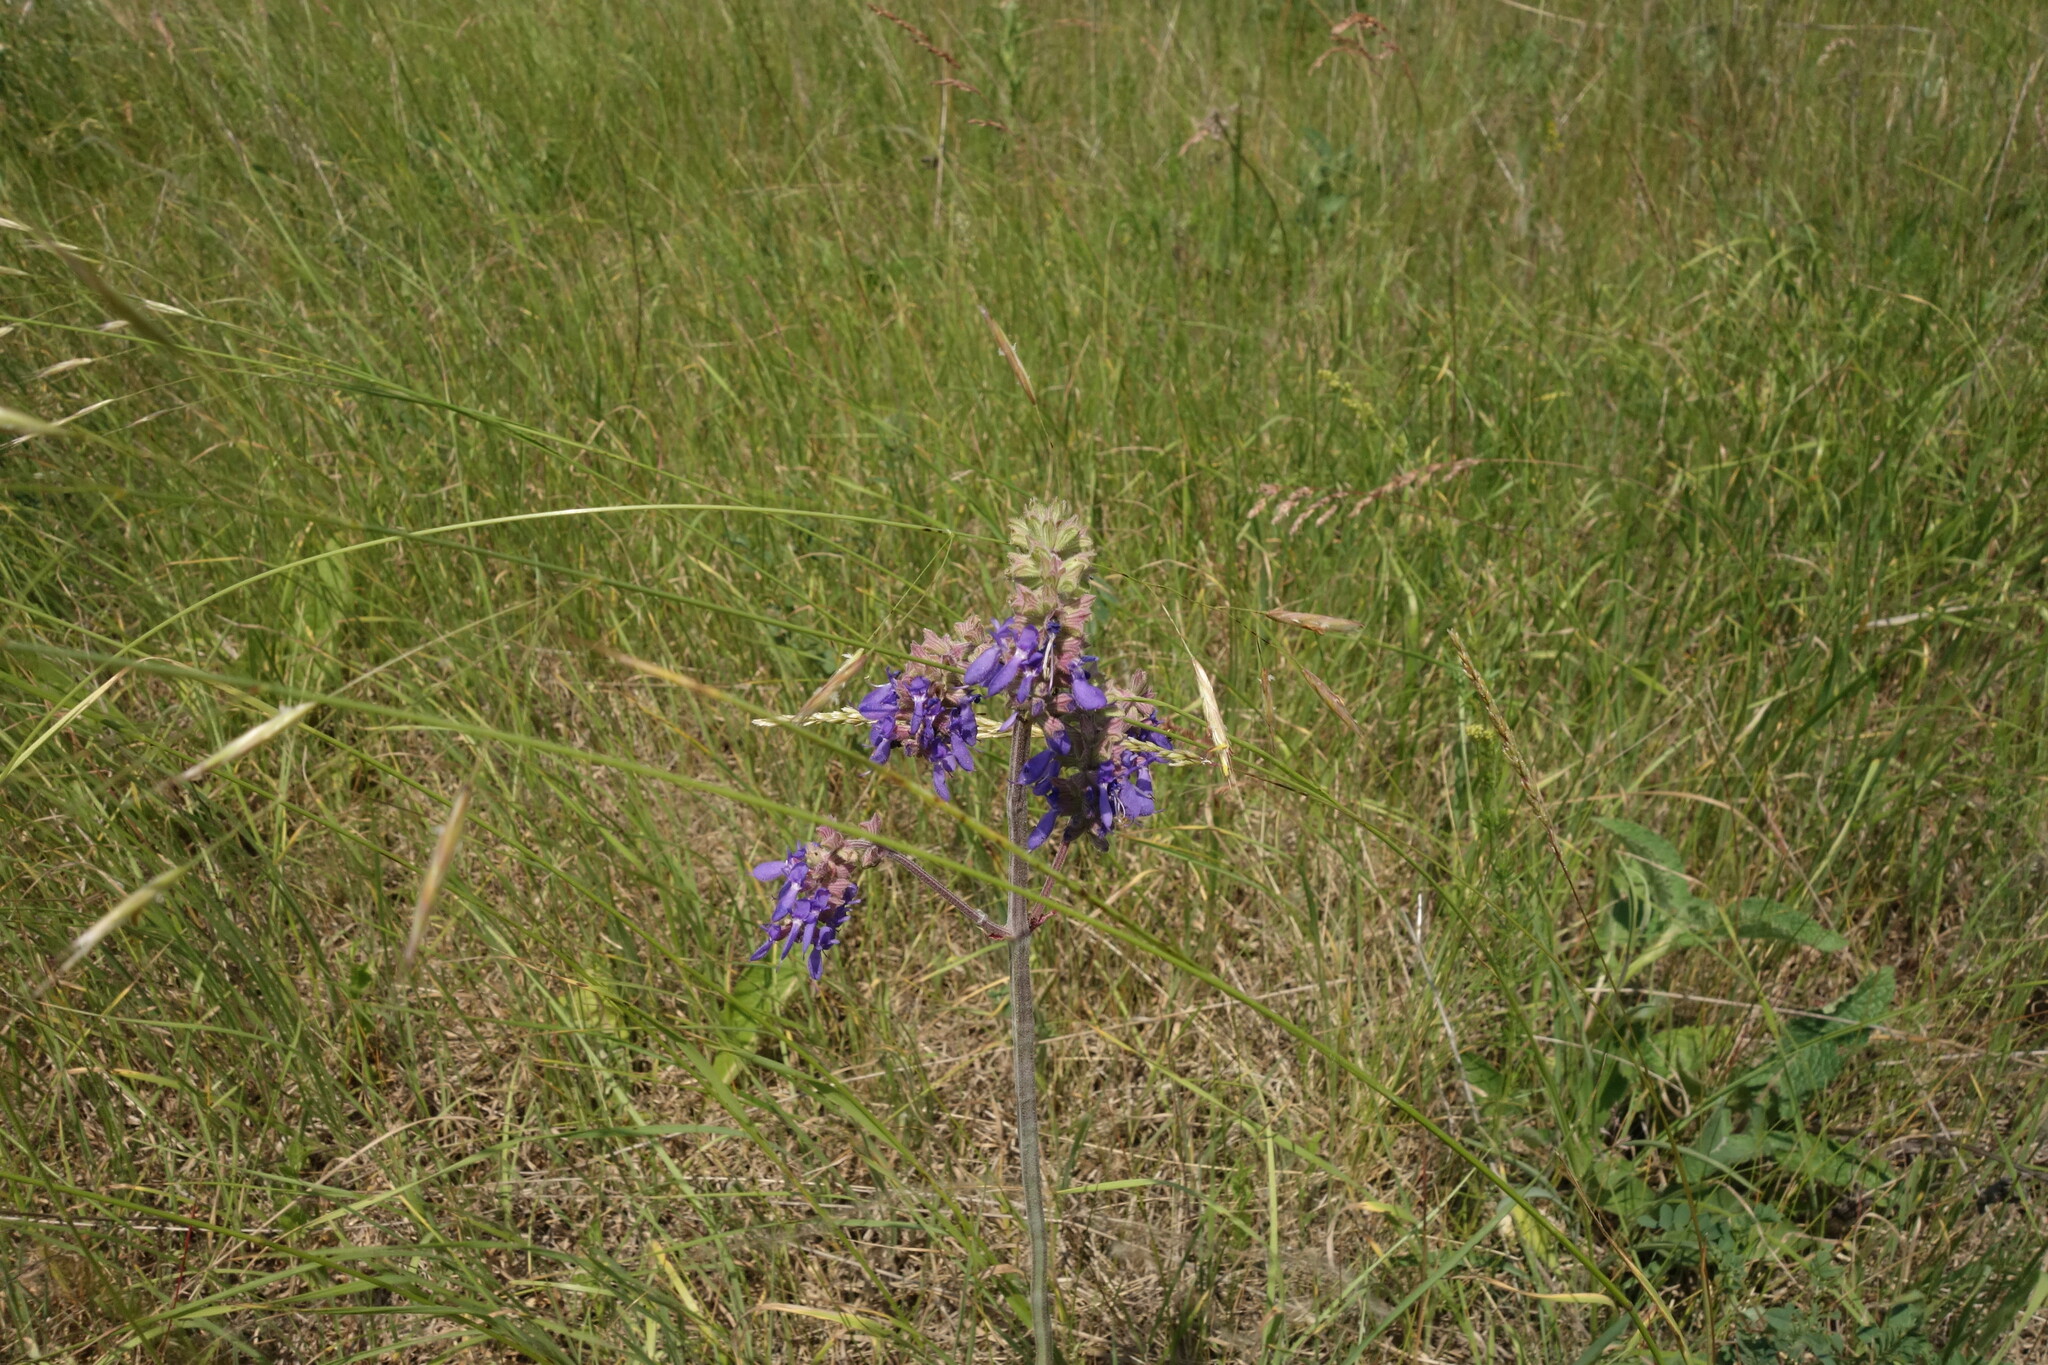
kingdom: Plantae
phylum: Tracheophyta
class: Magnoliopsida
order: Lamiales
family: Lamiaceae
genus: Salvia
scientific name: Salvia nutans
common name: Nodding sage
